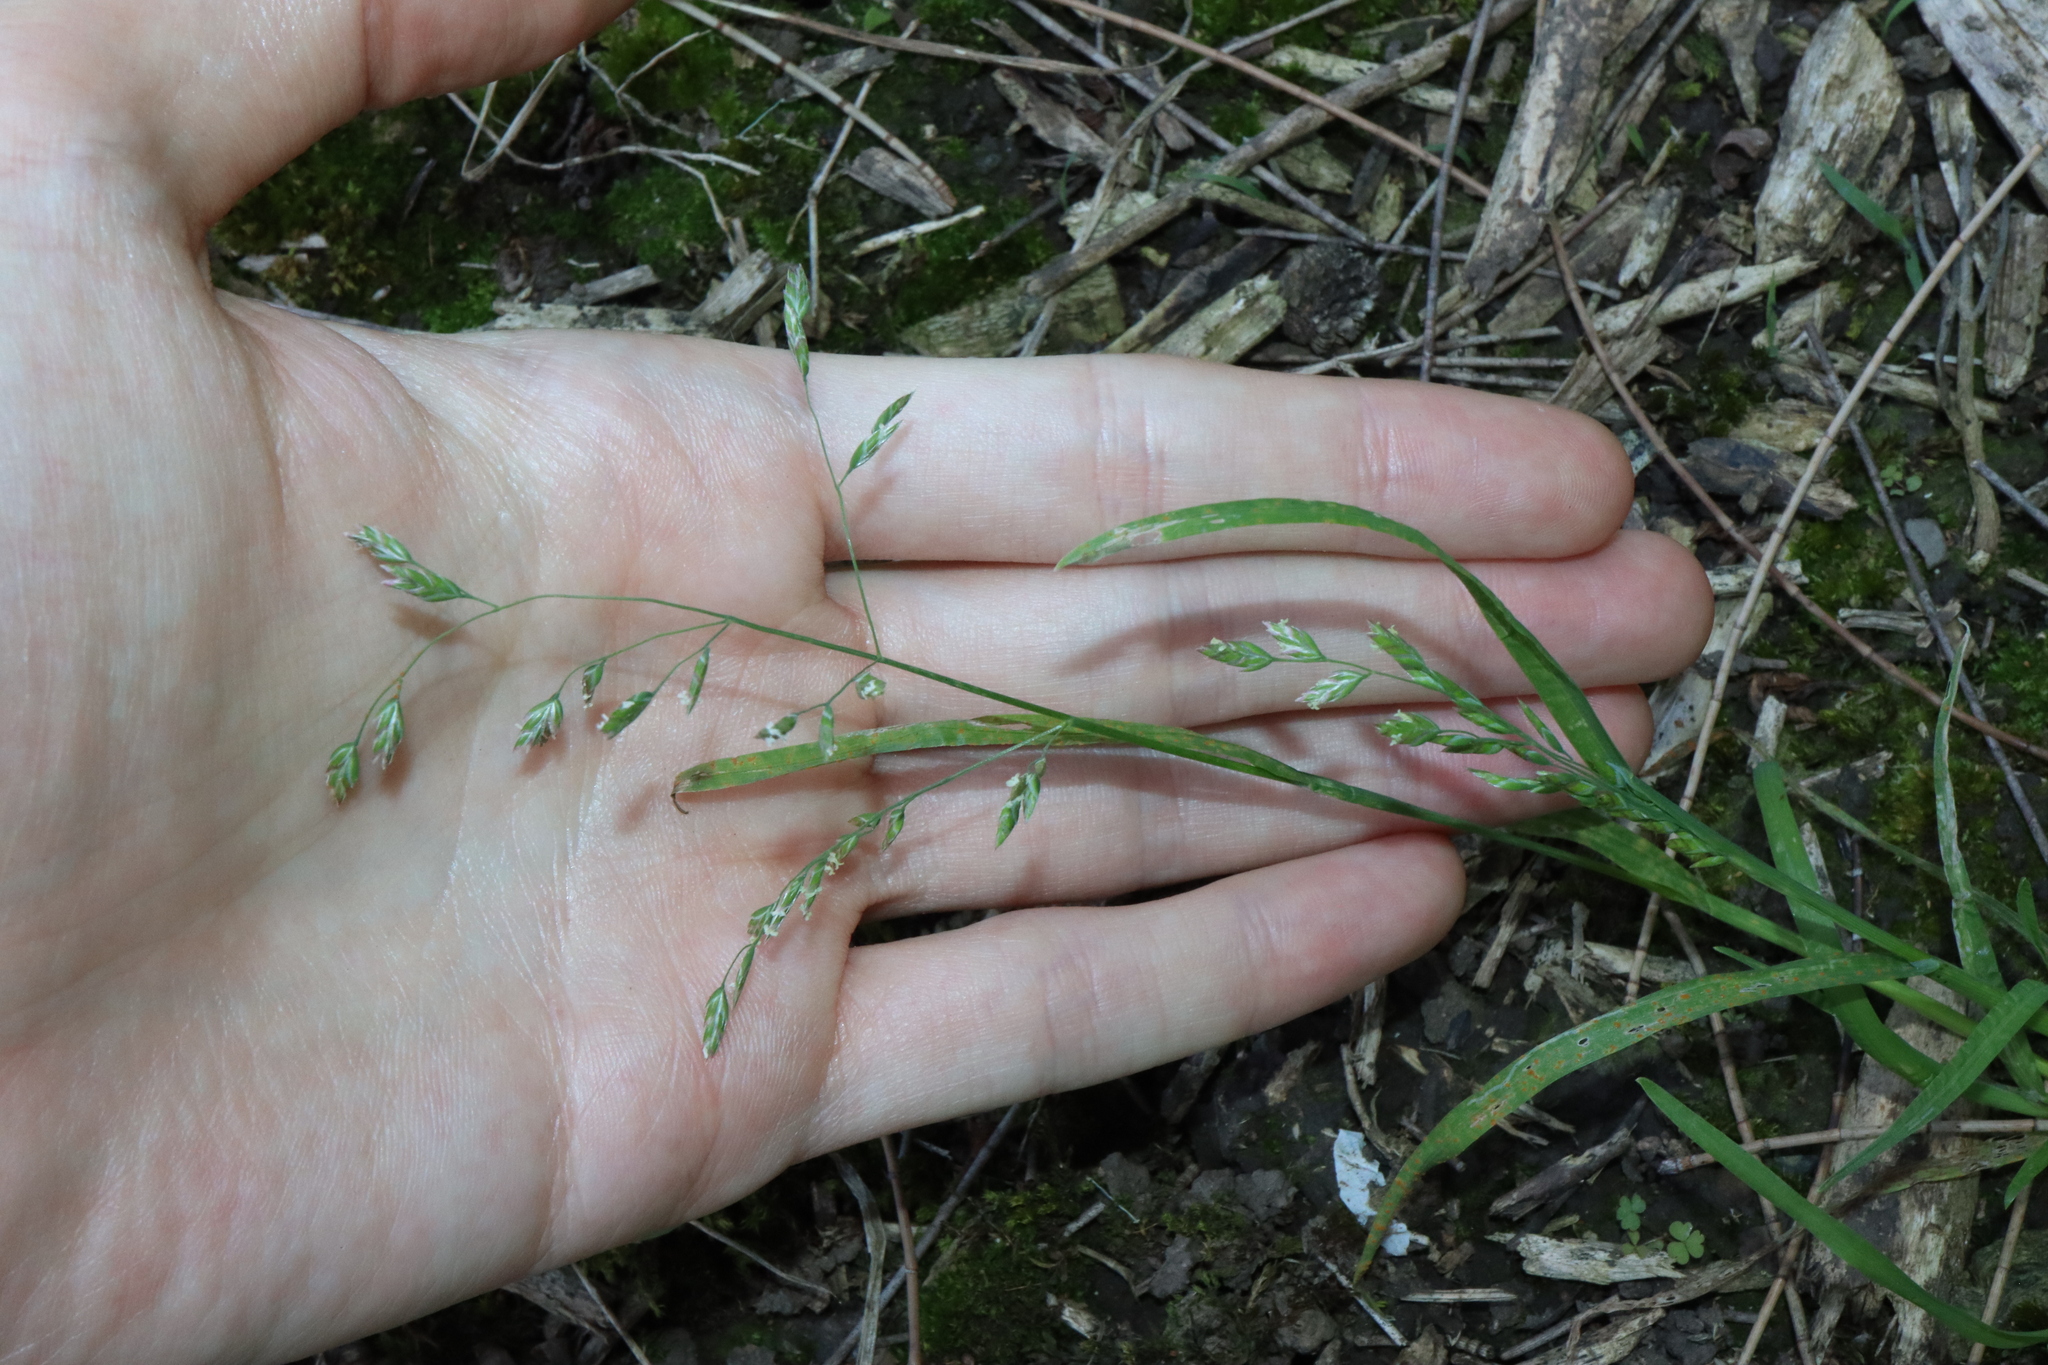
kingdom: Plantae
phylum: Tracheophyta
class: Liliopsida
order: Poales
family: Poaceae
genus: Poa
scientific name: Poa annua
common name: Annual bluegrass
